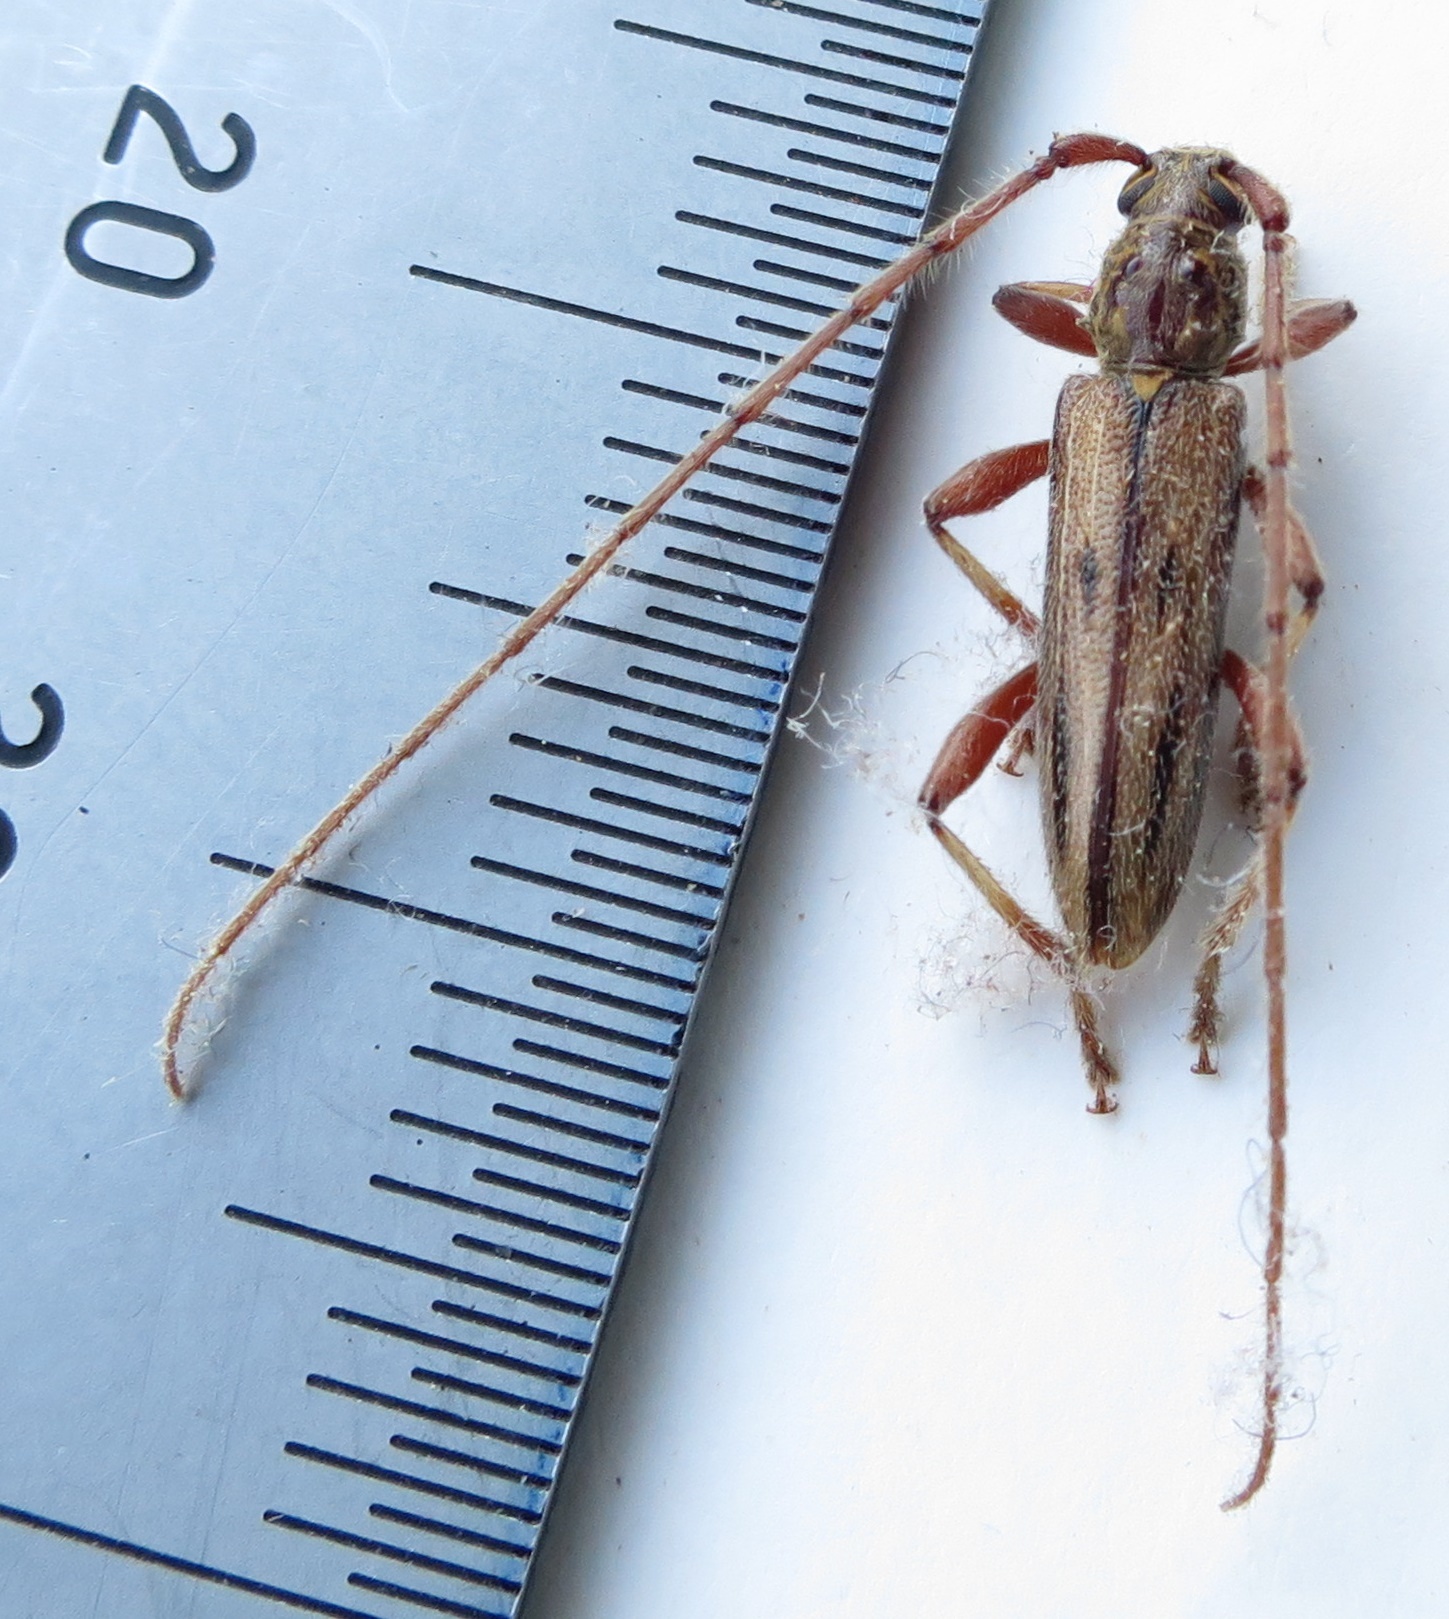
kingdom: Animalia
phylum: Arthropoda
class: Insecta
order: Coleoptera
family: Cerambycidae
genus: Didymocantha
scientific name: Didymocantha sublineata
